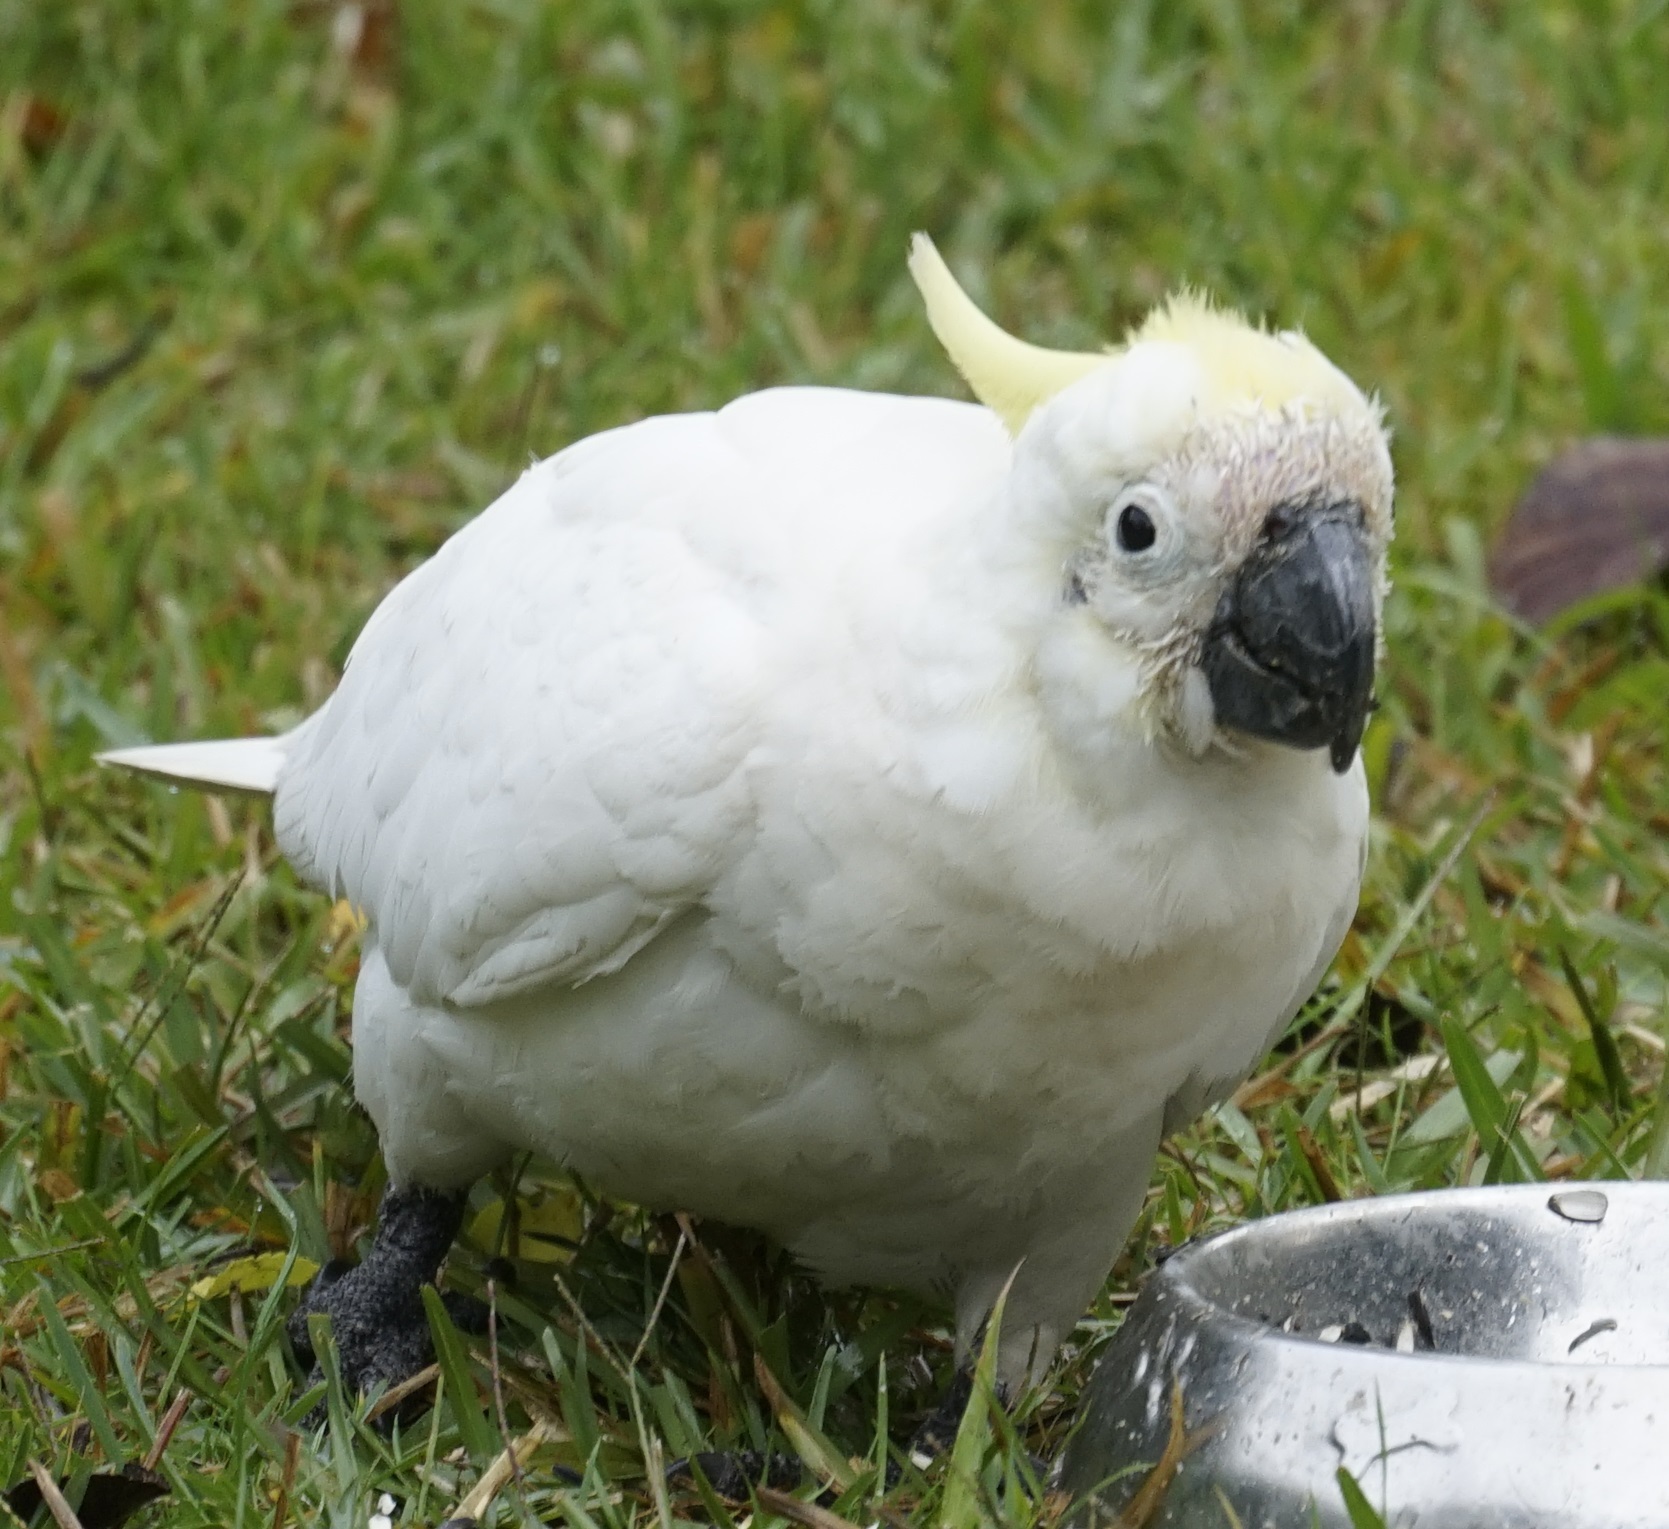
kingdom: Animalia
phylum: Chordata
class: Aves
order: Psittaciformes
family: Psittacidae
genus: Cacatua
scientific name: Cacatua galerita
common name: Sulphur-crested cockatoo
